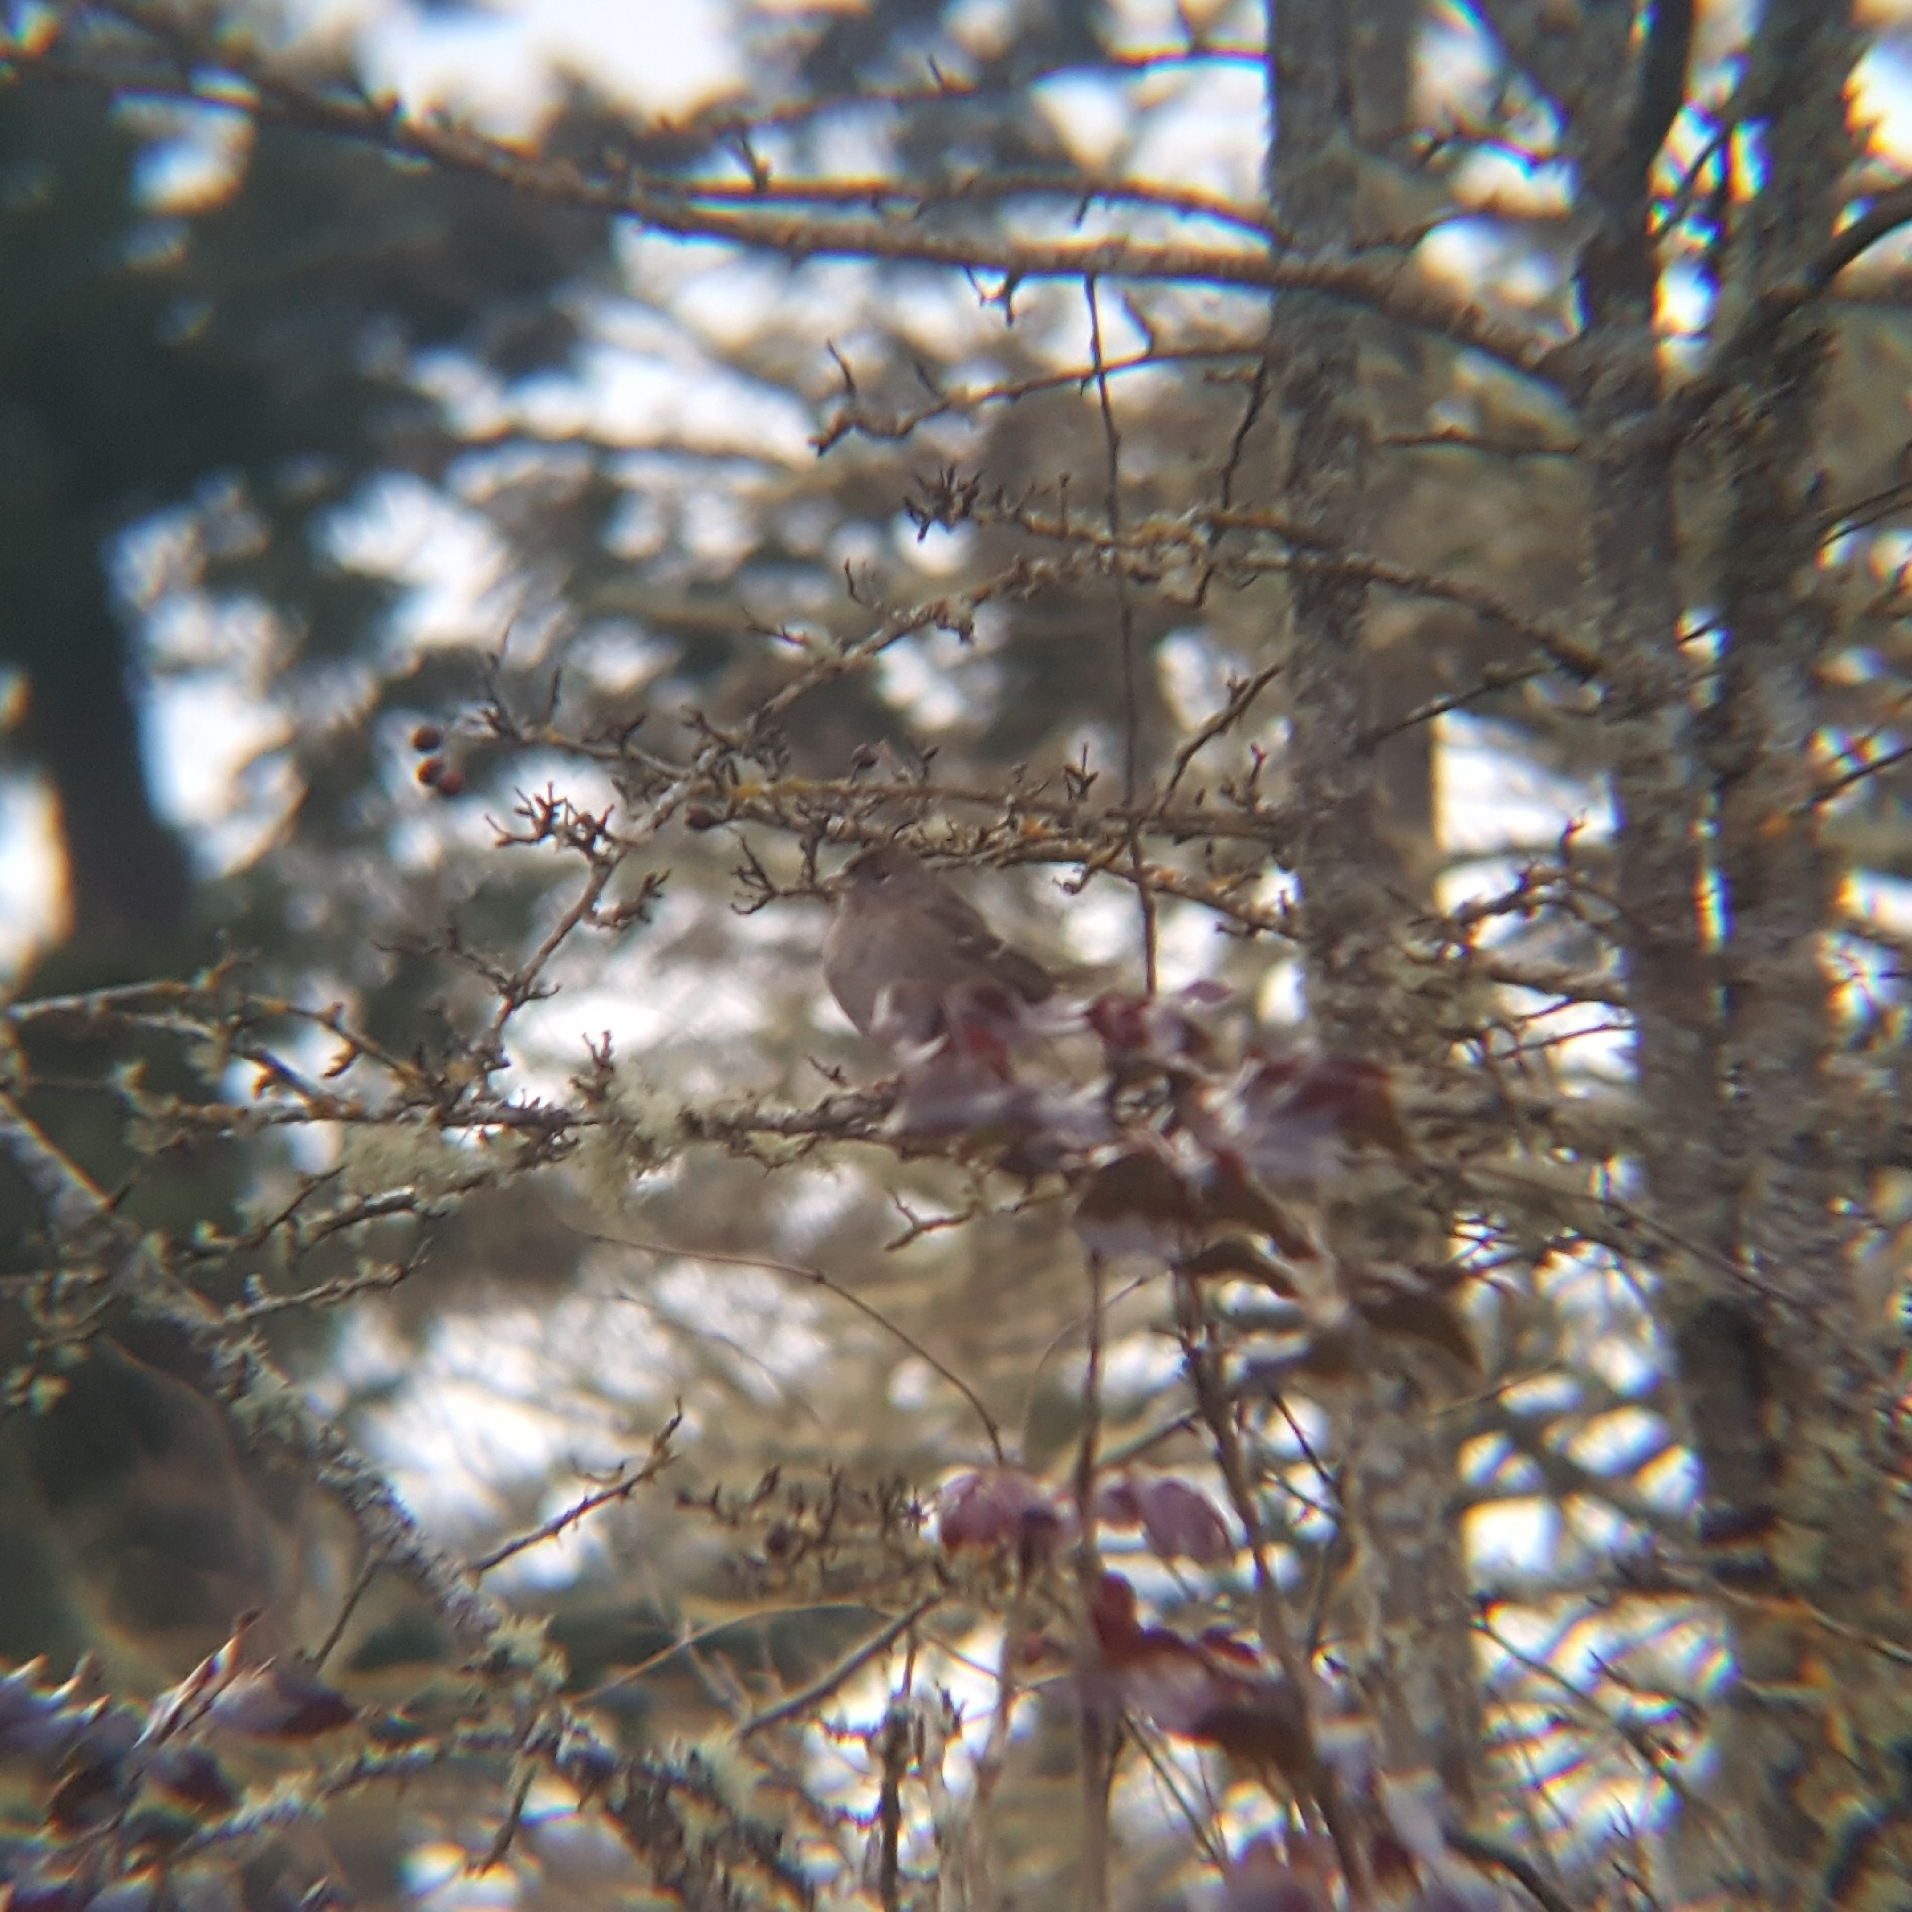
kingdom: Animalia
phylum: Chordata
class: Aves
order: Passeriformes
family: Passerellidae
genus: Zonotrichia
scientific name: Zonotrichia atricapilla
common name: Golden-crowned sparrow
